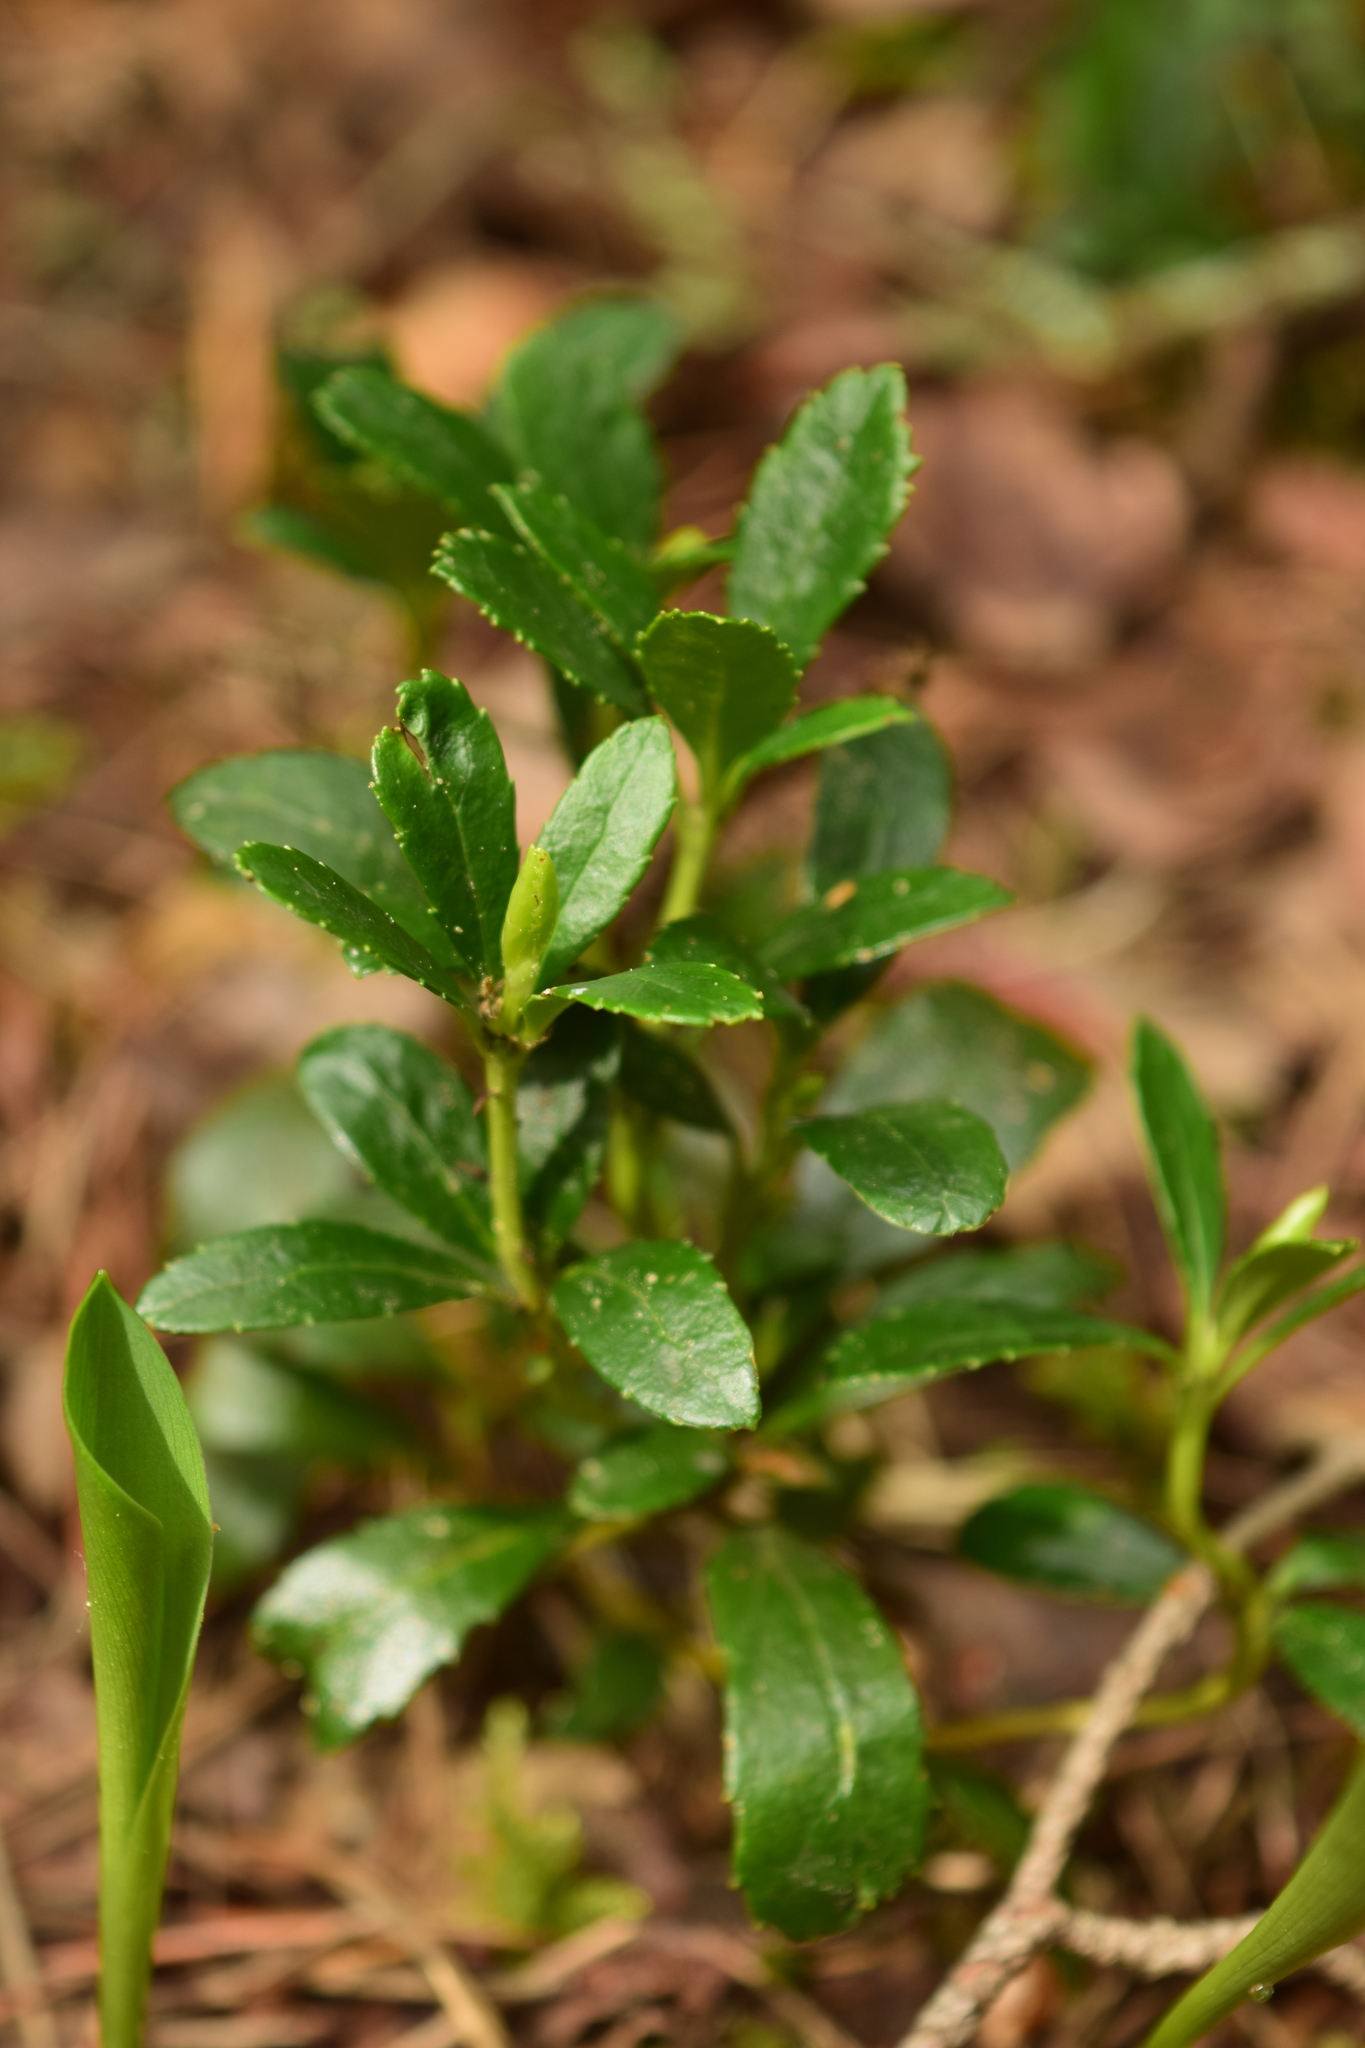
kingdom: Plantae
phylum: Tracheophyta
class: Magnoliopsida
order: Ericales
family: Ericaceae
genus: Chimaphila
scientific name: Chimaphila umbellata
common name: Pipsissewa
